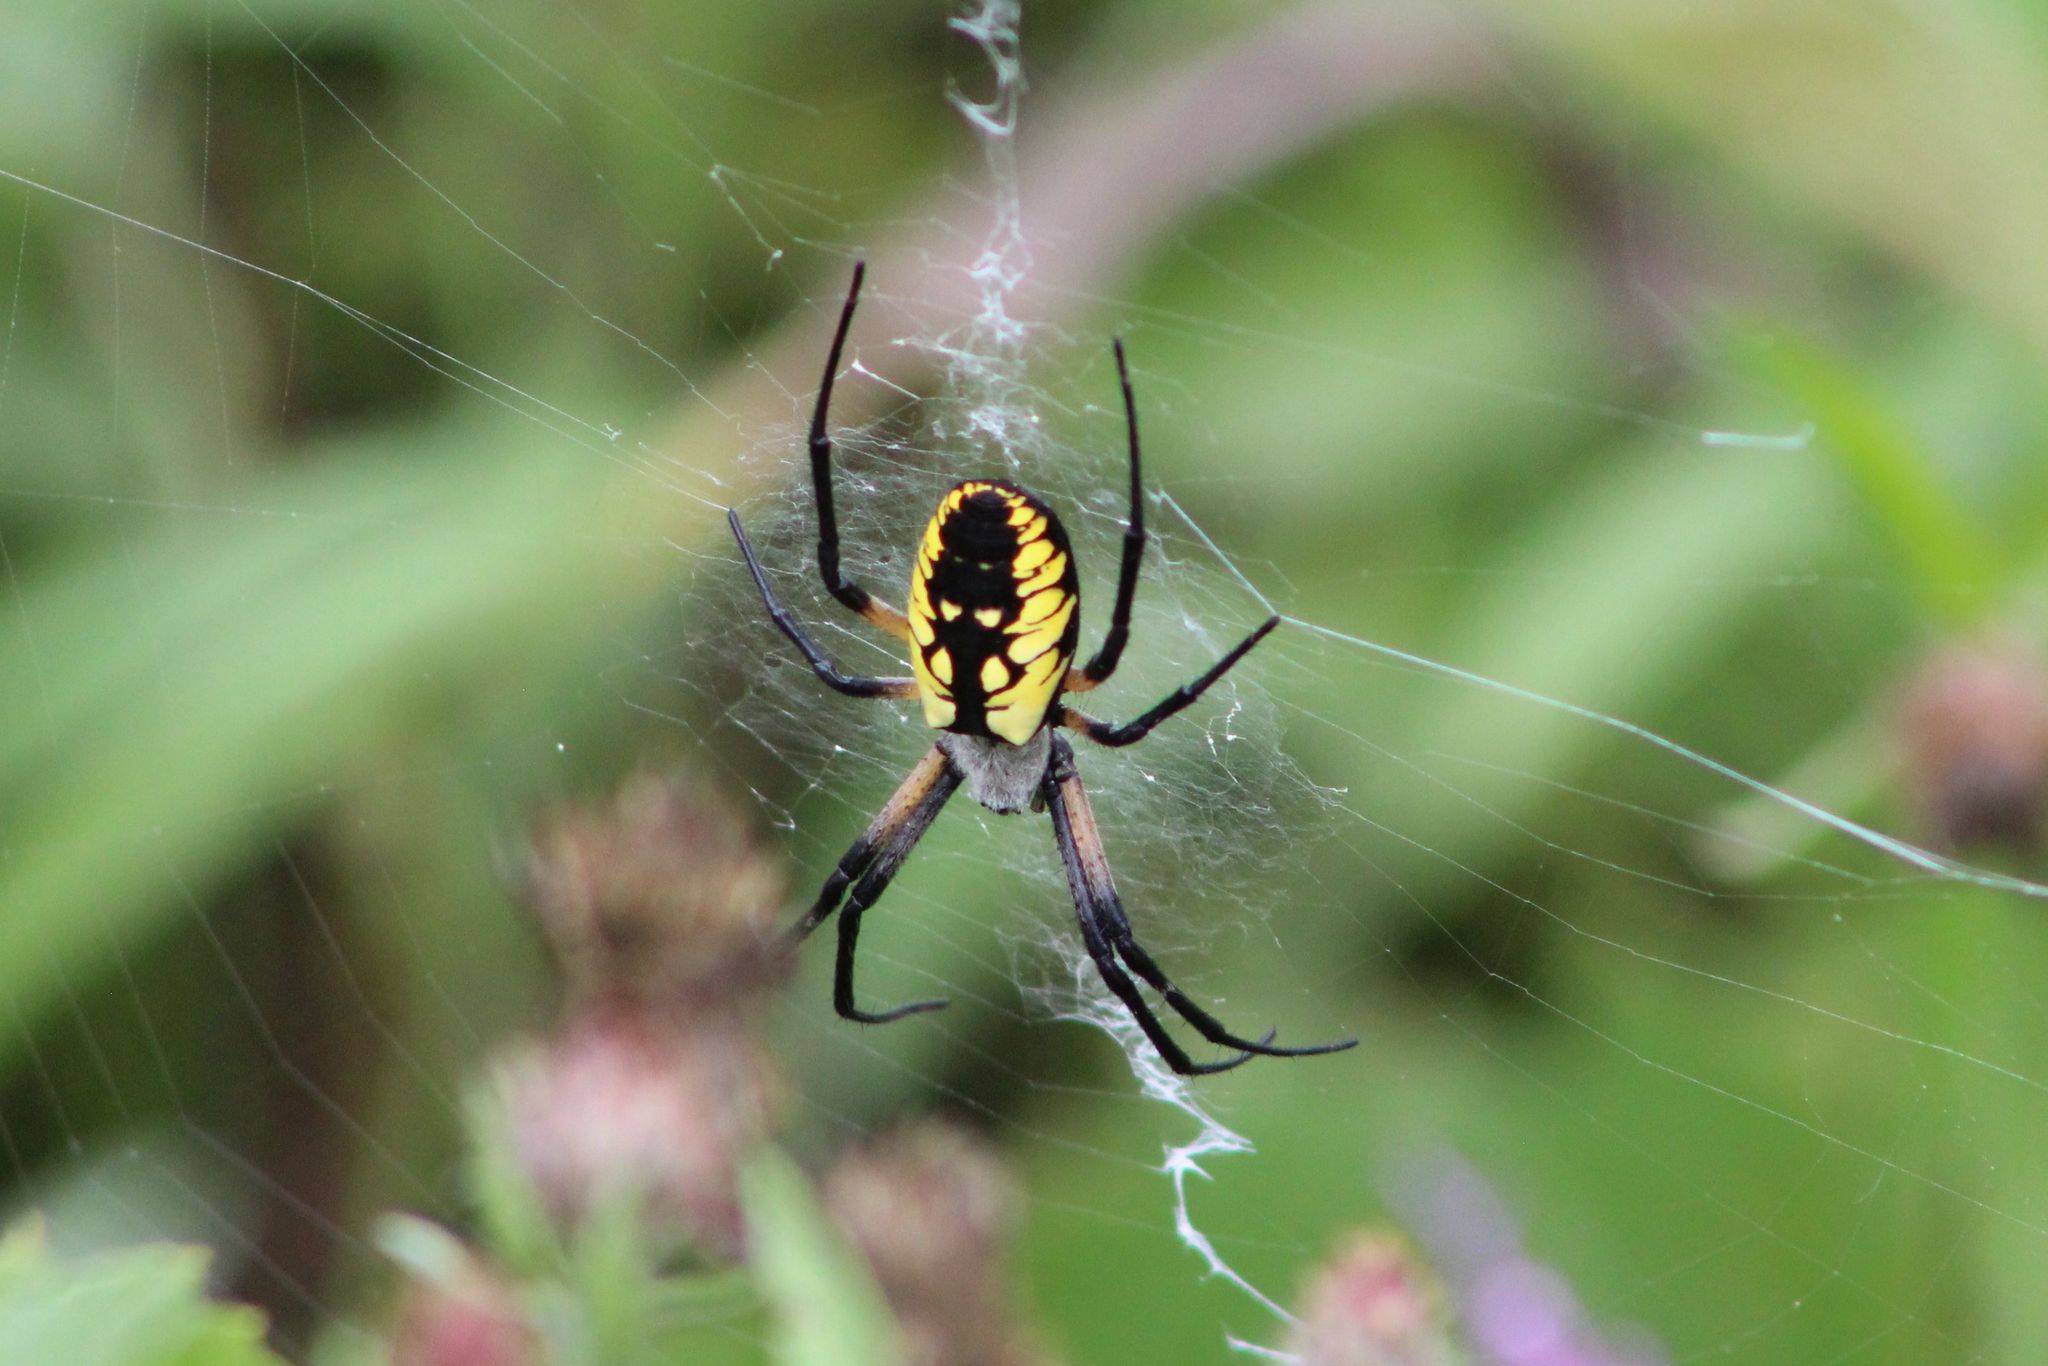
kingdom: Animalia
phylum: Arthropoda
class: Arachnida
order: Araneae
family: Araneidae
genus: Argiope
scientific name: Argiope aurantia
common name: Orb weavers
